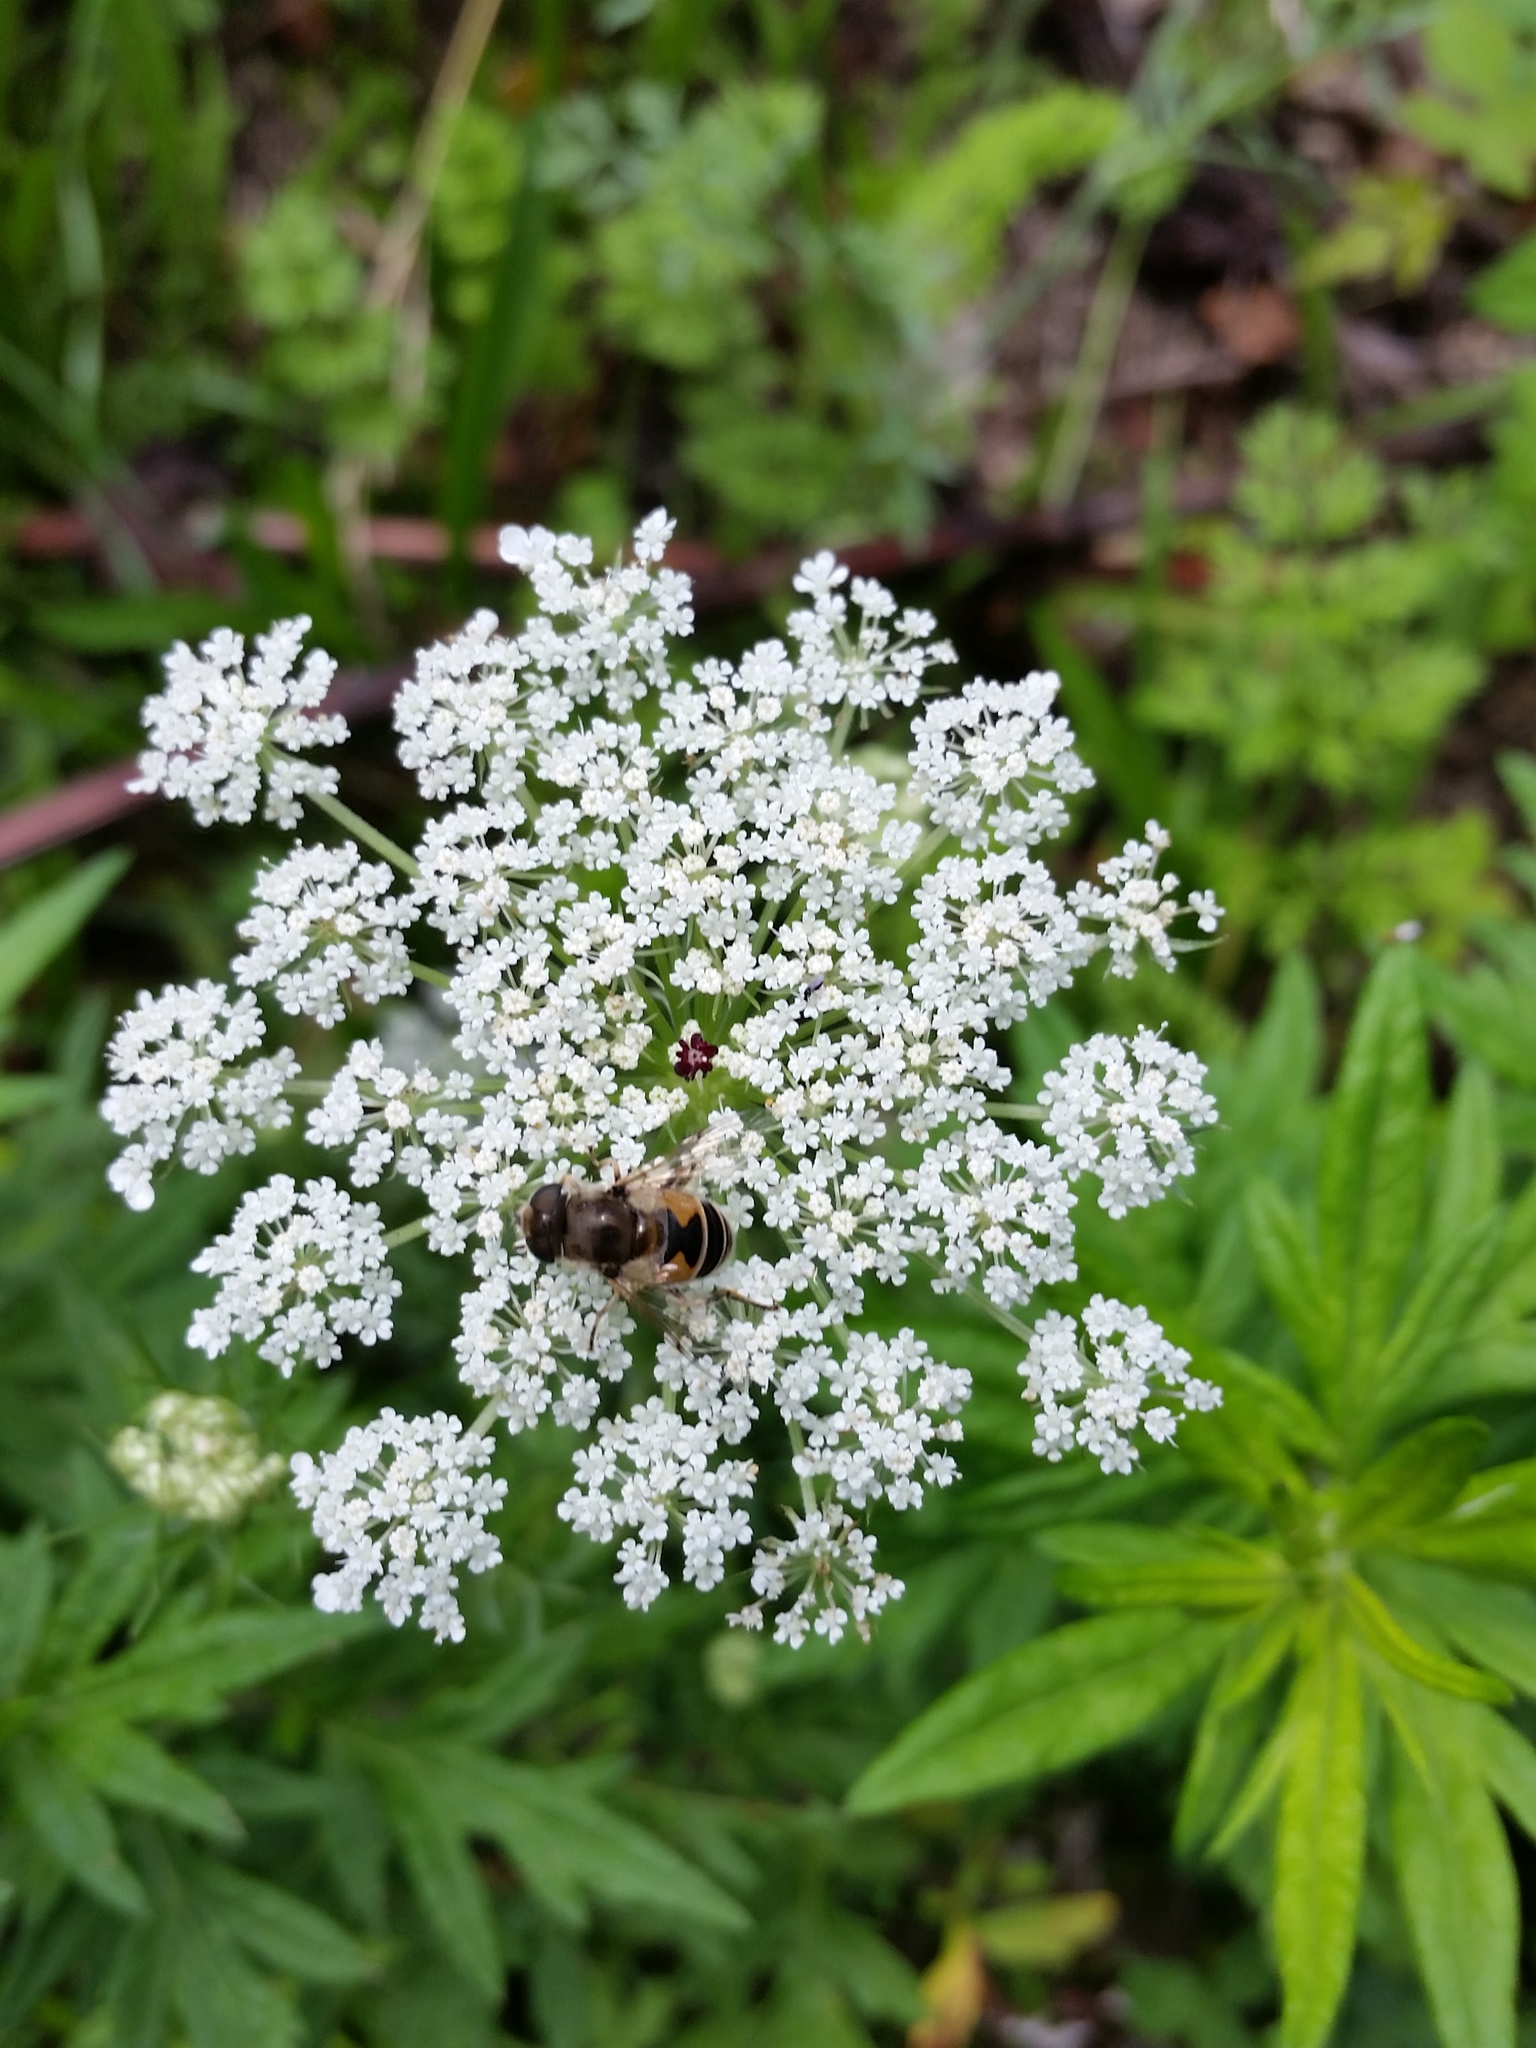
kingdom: Animalia
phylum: Arthropoda
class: Insecta
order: Diptera
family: Syrphidae
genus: Eristalis
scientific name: Eristalis arbustorum
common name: Hover fly
